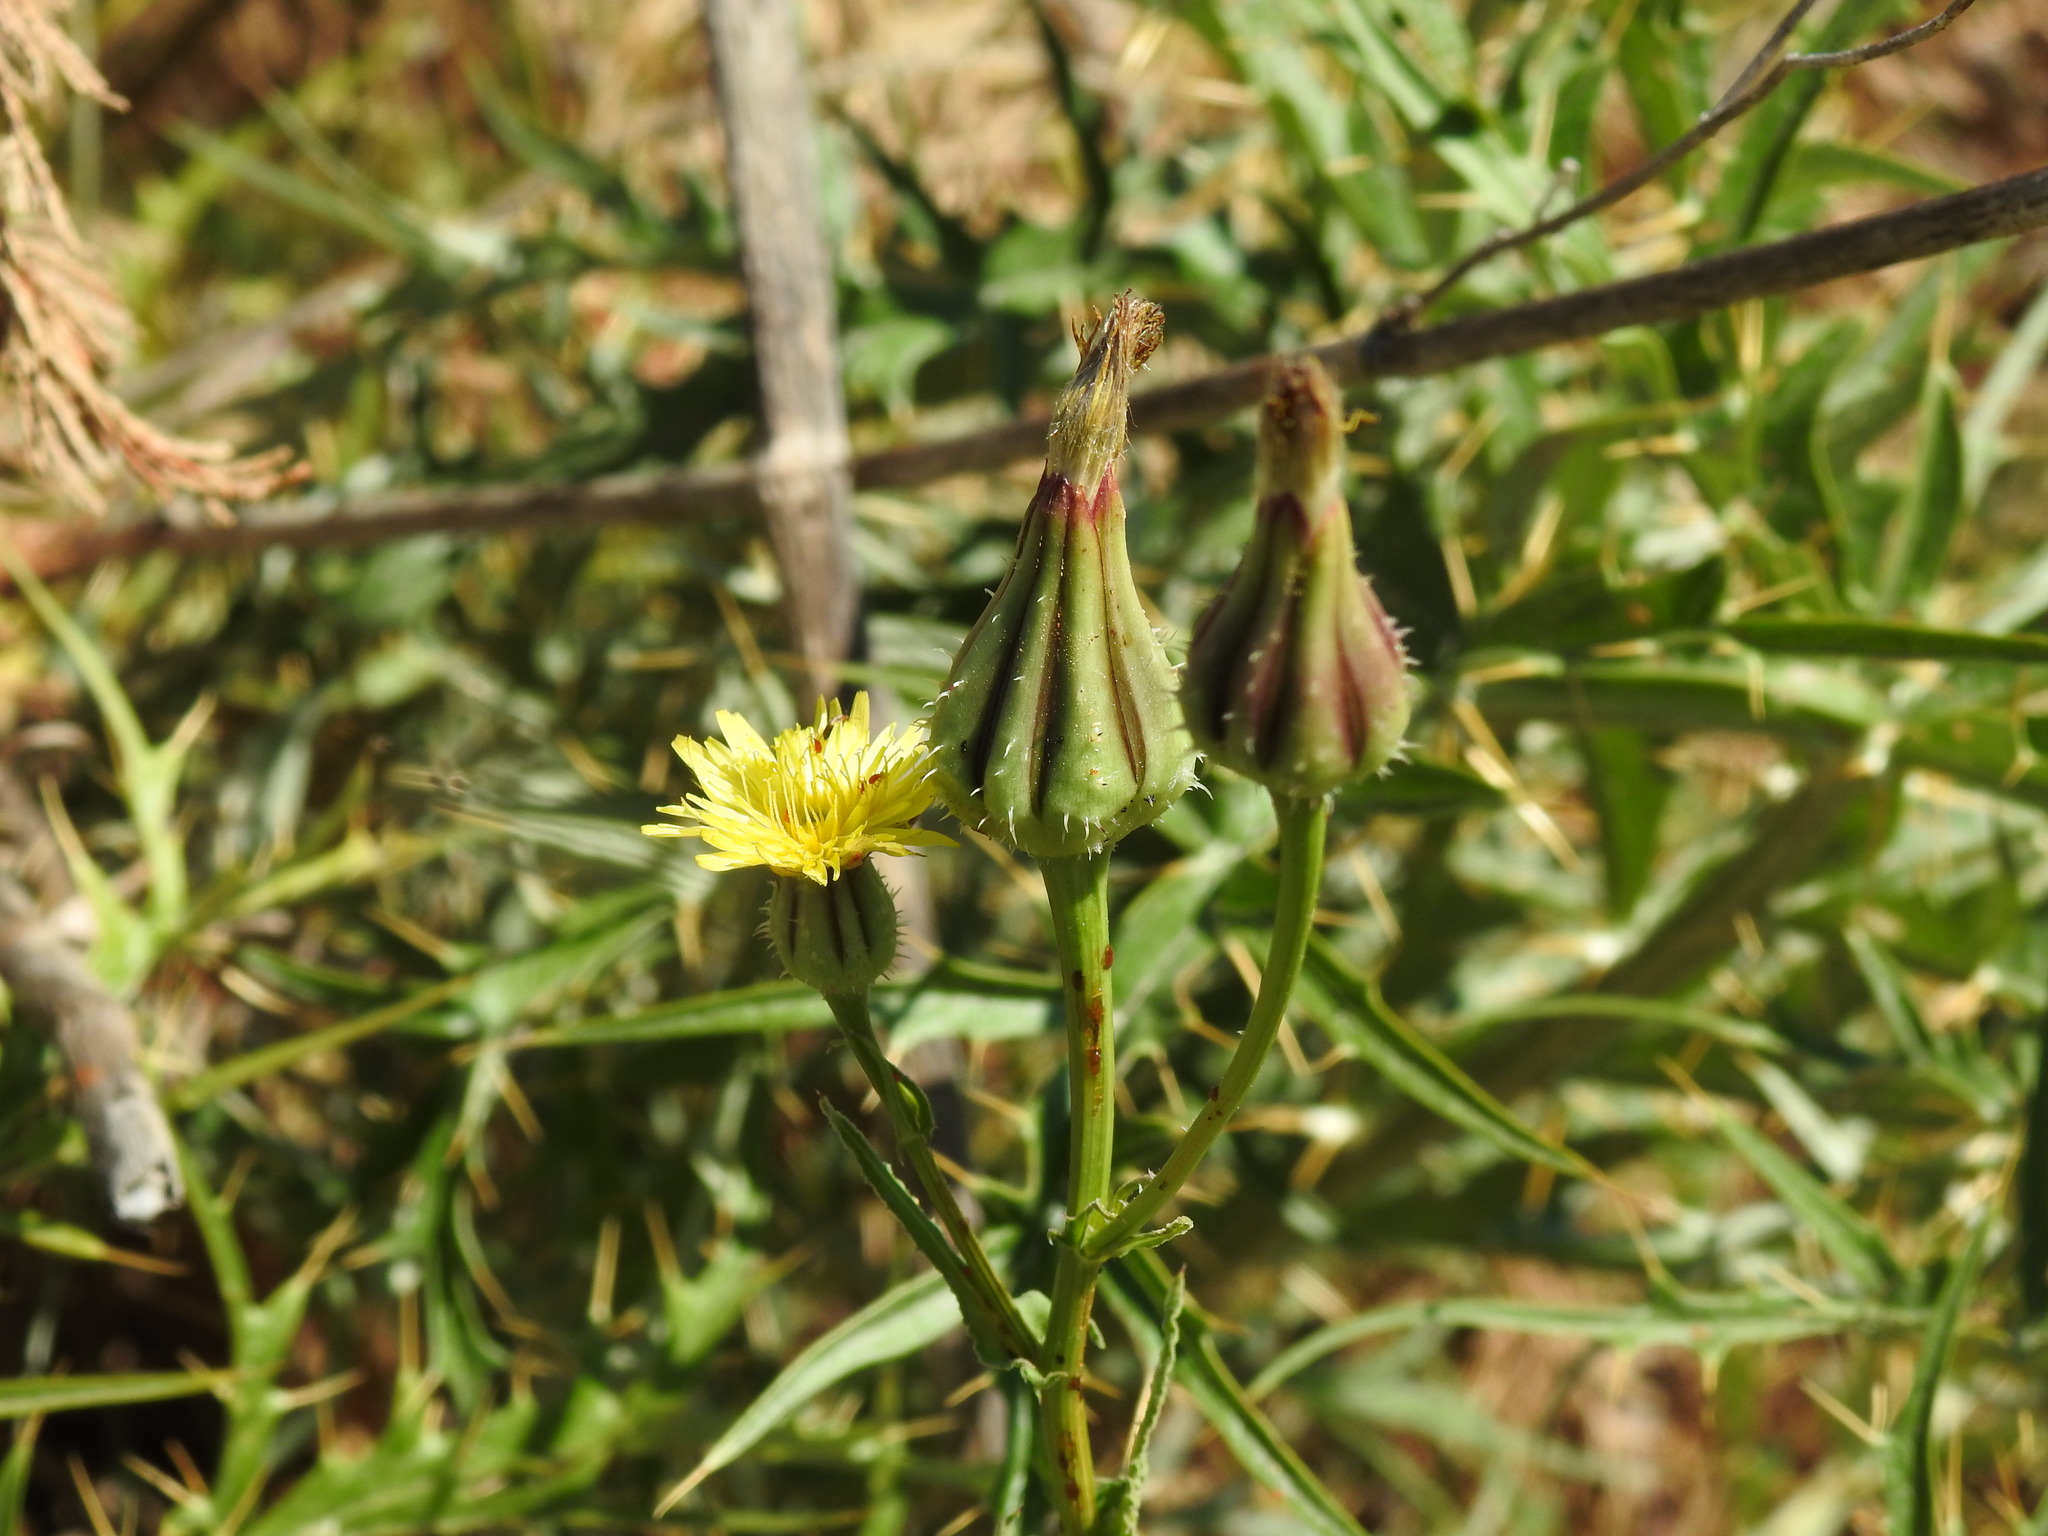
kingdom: Plantae
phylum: Tracheophyta
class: Magnoliopsida
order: Asterales
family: Asteraceae
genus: Urospermum
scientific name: Urospermum picroides
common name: False hawkbit
